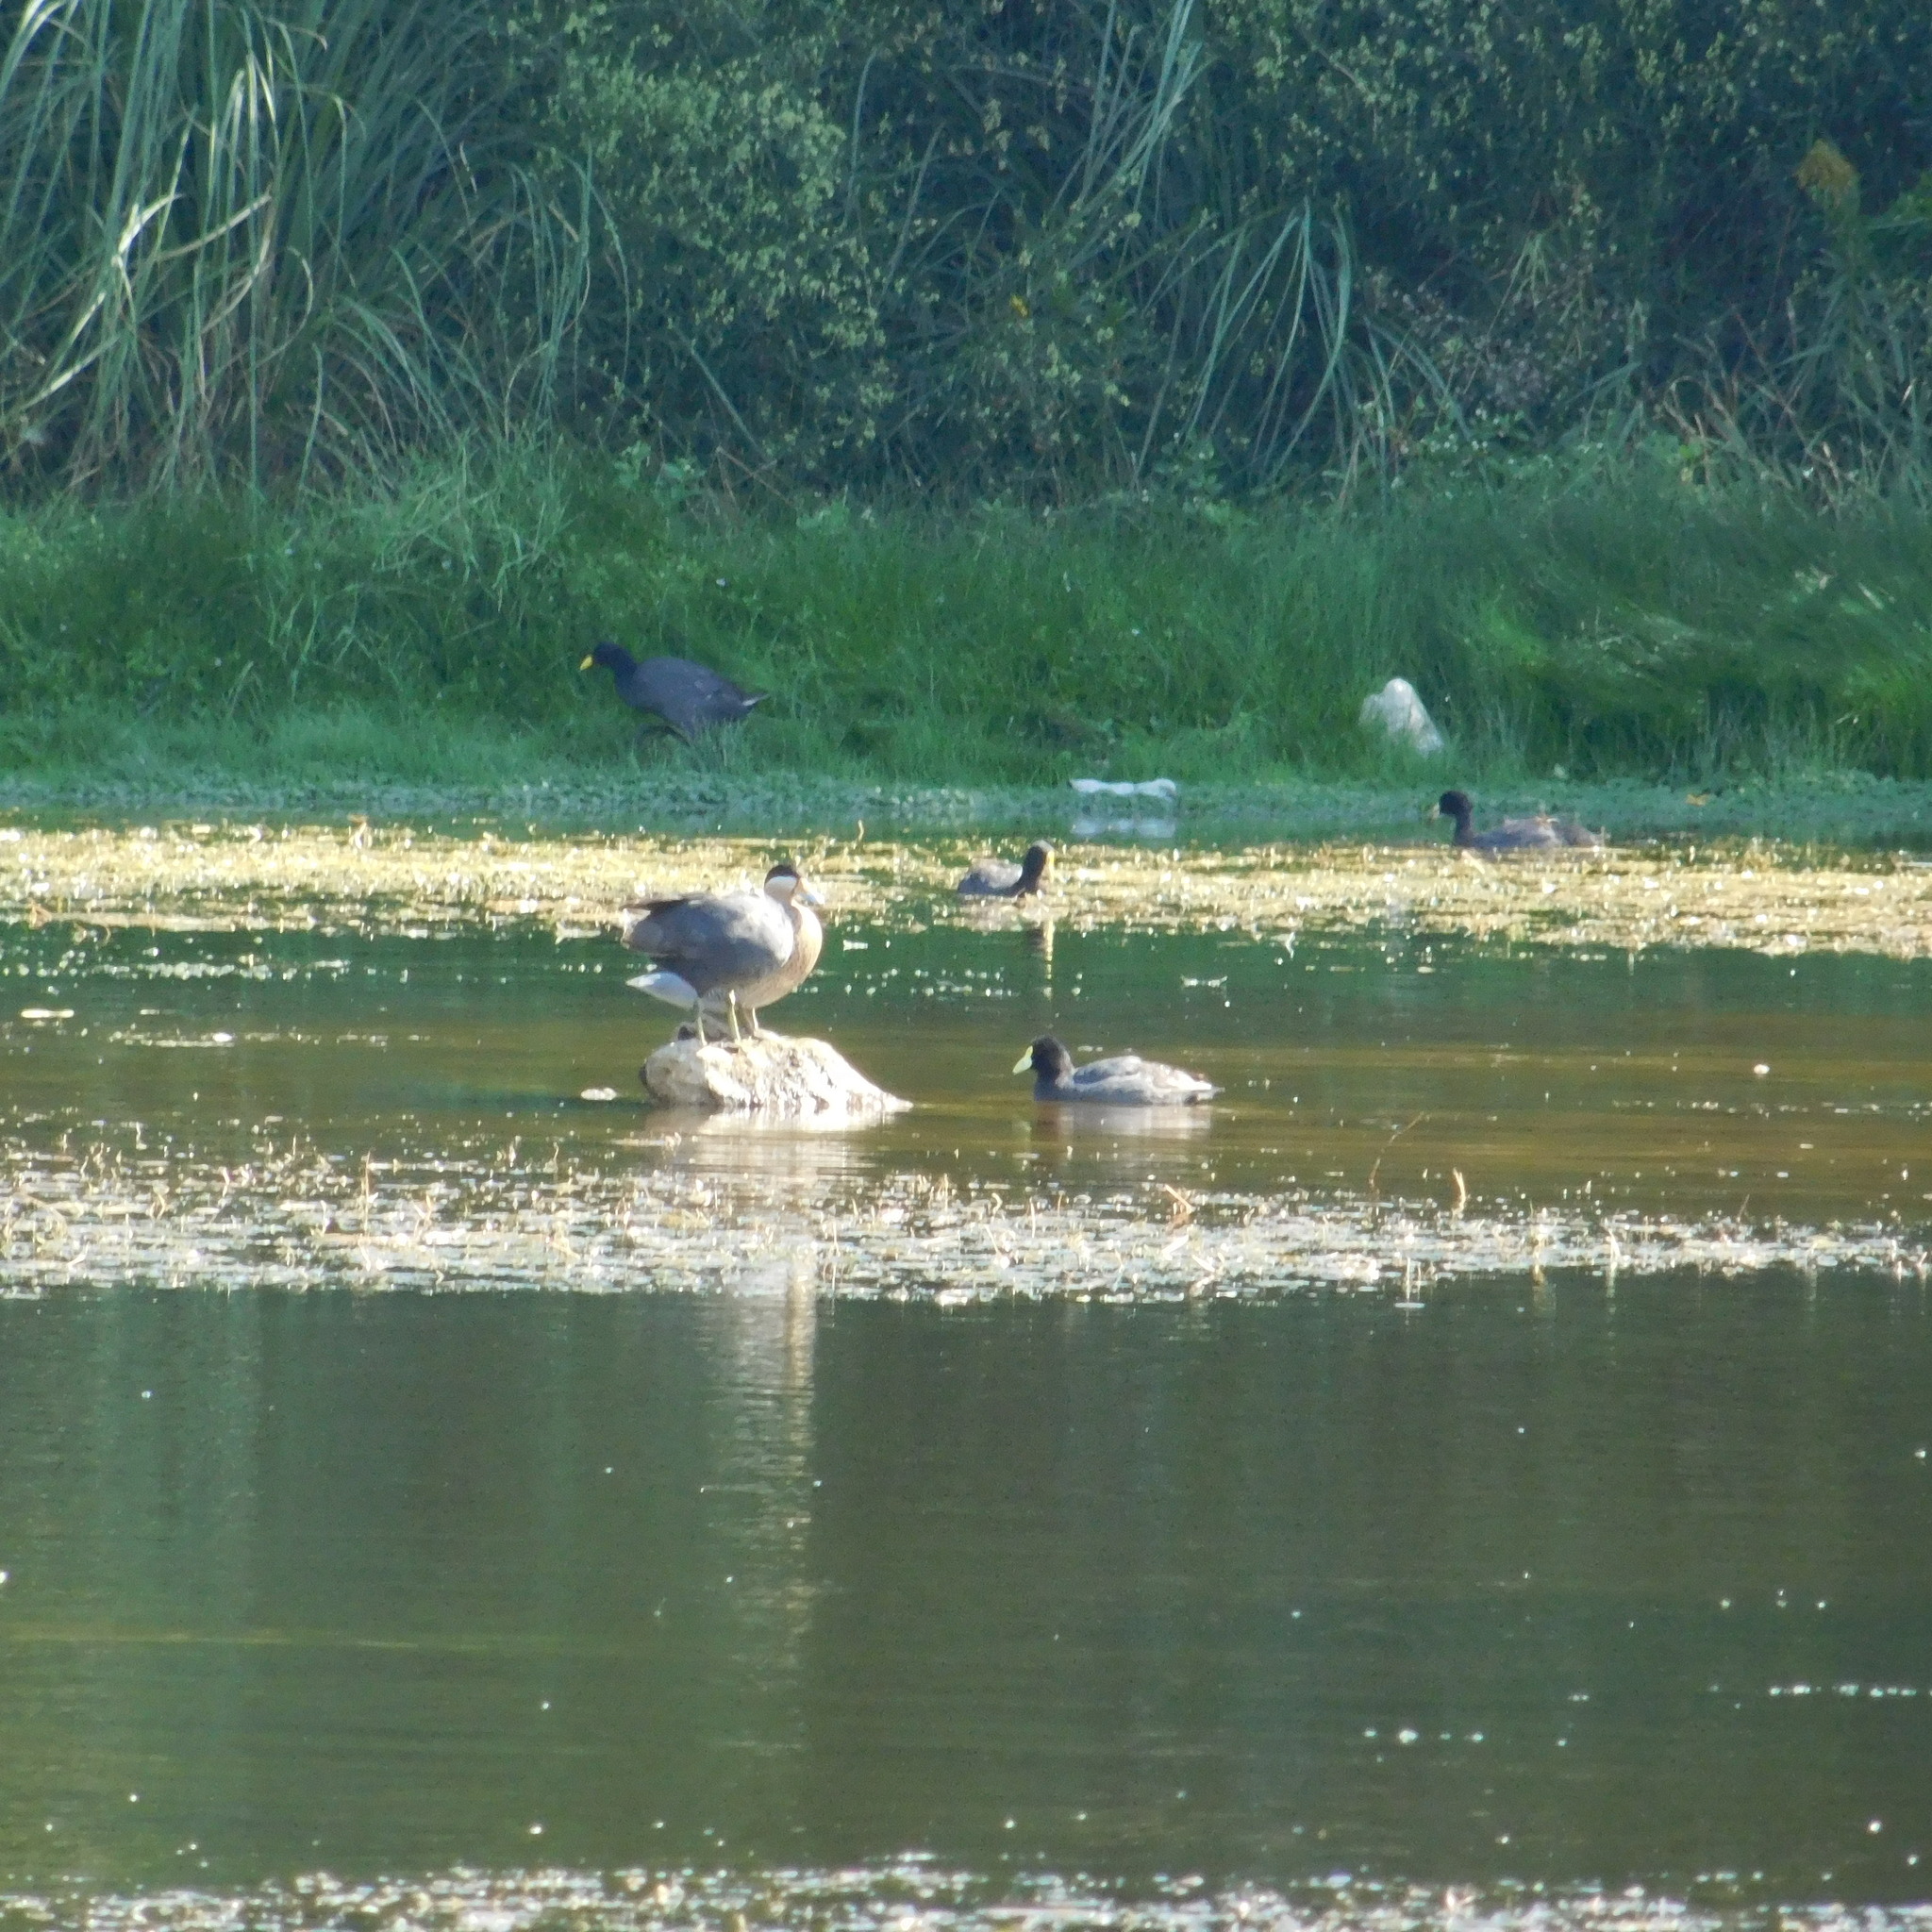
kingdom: Animalia
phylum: Chordata
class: Aves
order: Anseriformes
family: Anatidae
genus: Spatula
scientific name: Spatula versicolor
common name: Silver teal
